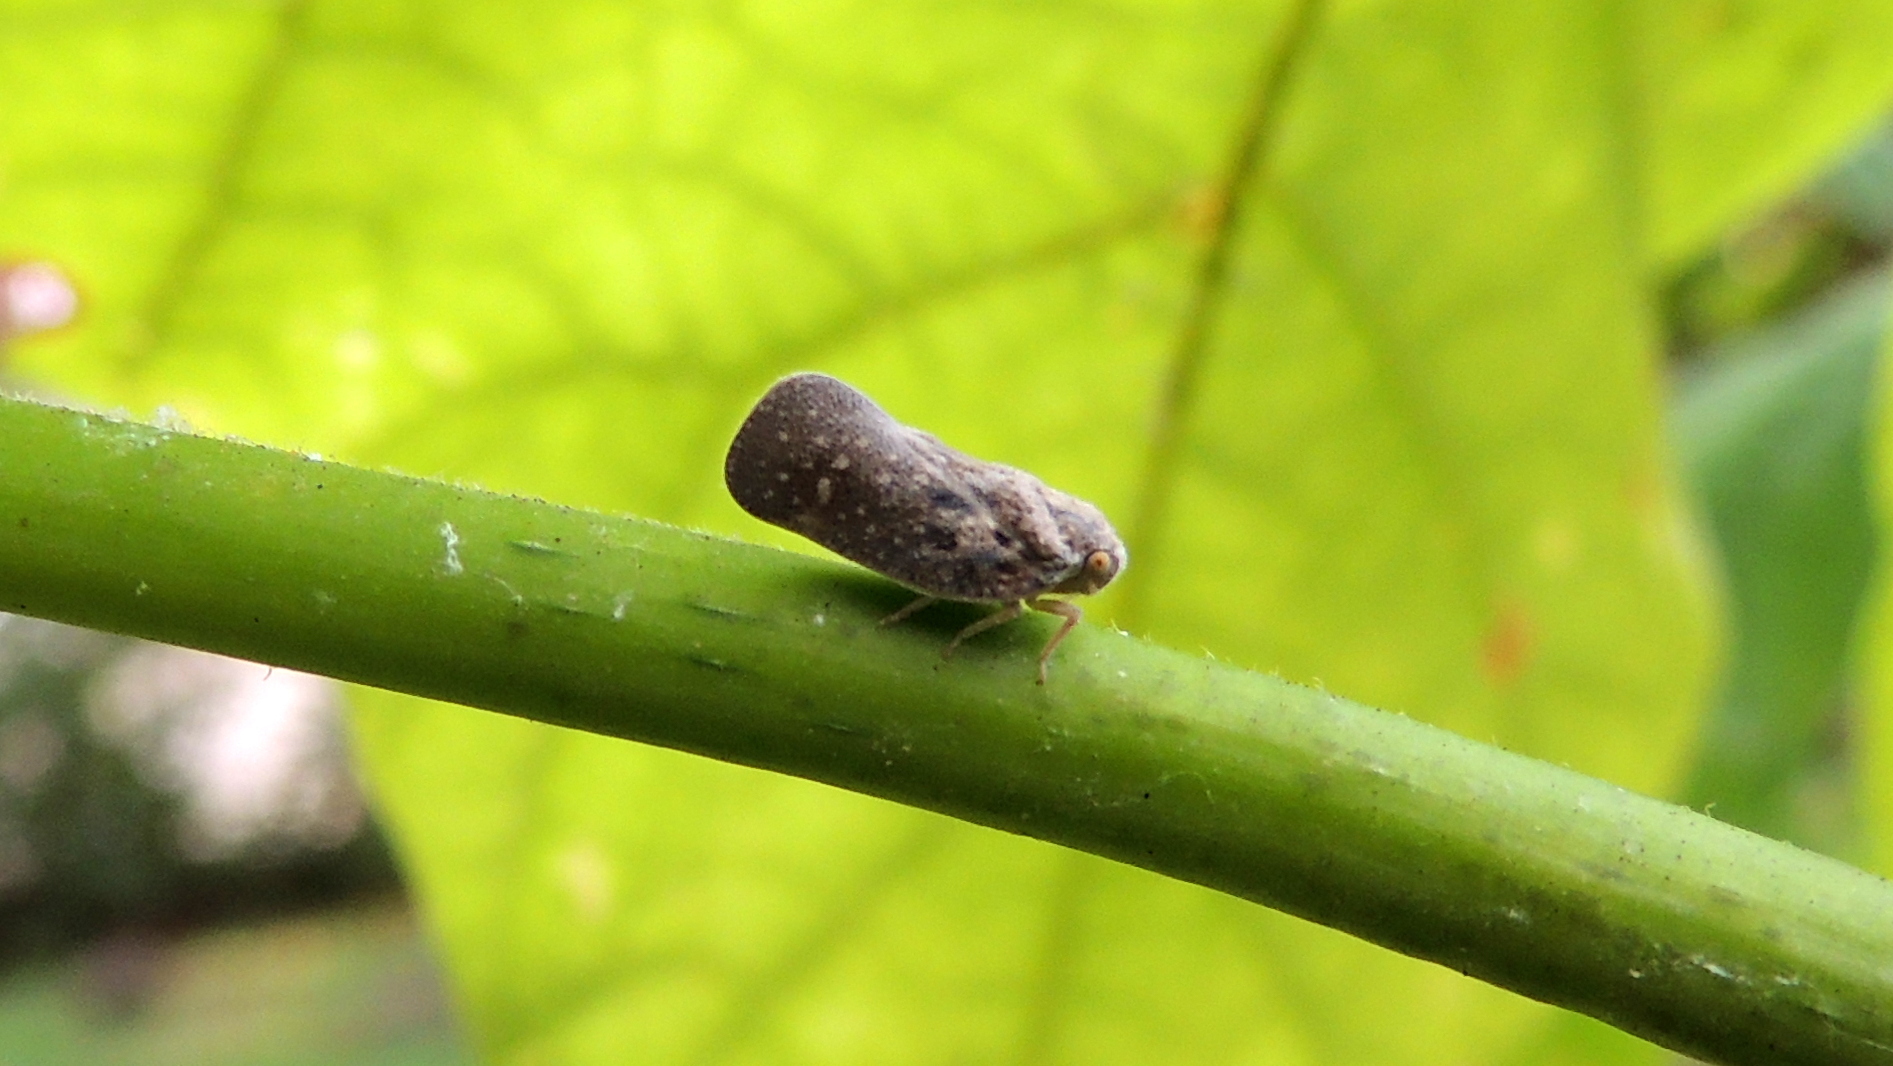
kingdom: Animalia
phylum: Arthropoda
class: Insecta
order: Hemiptera
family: Flatidae
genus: Metcalfa
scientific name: Metcalfa pruinosa
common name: Citrus flatid planthopper
